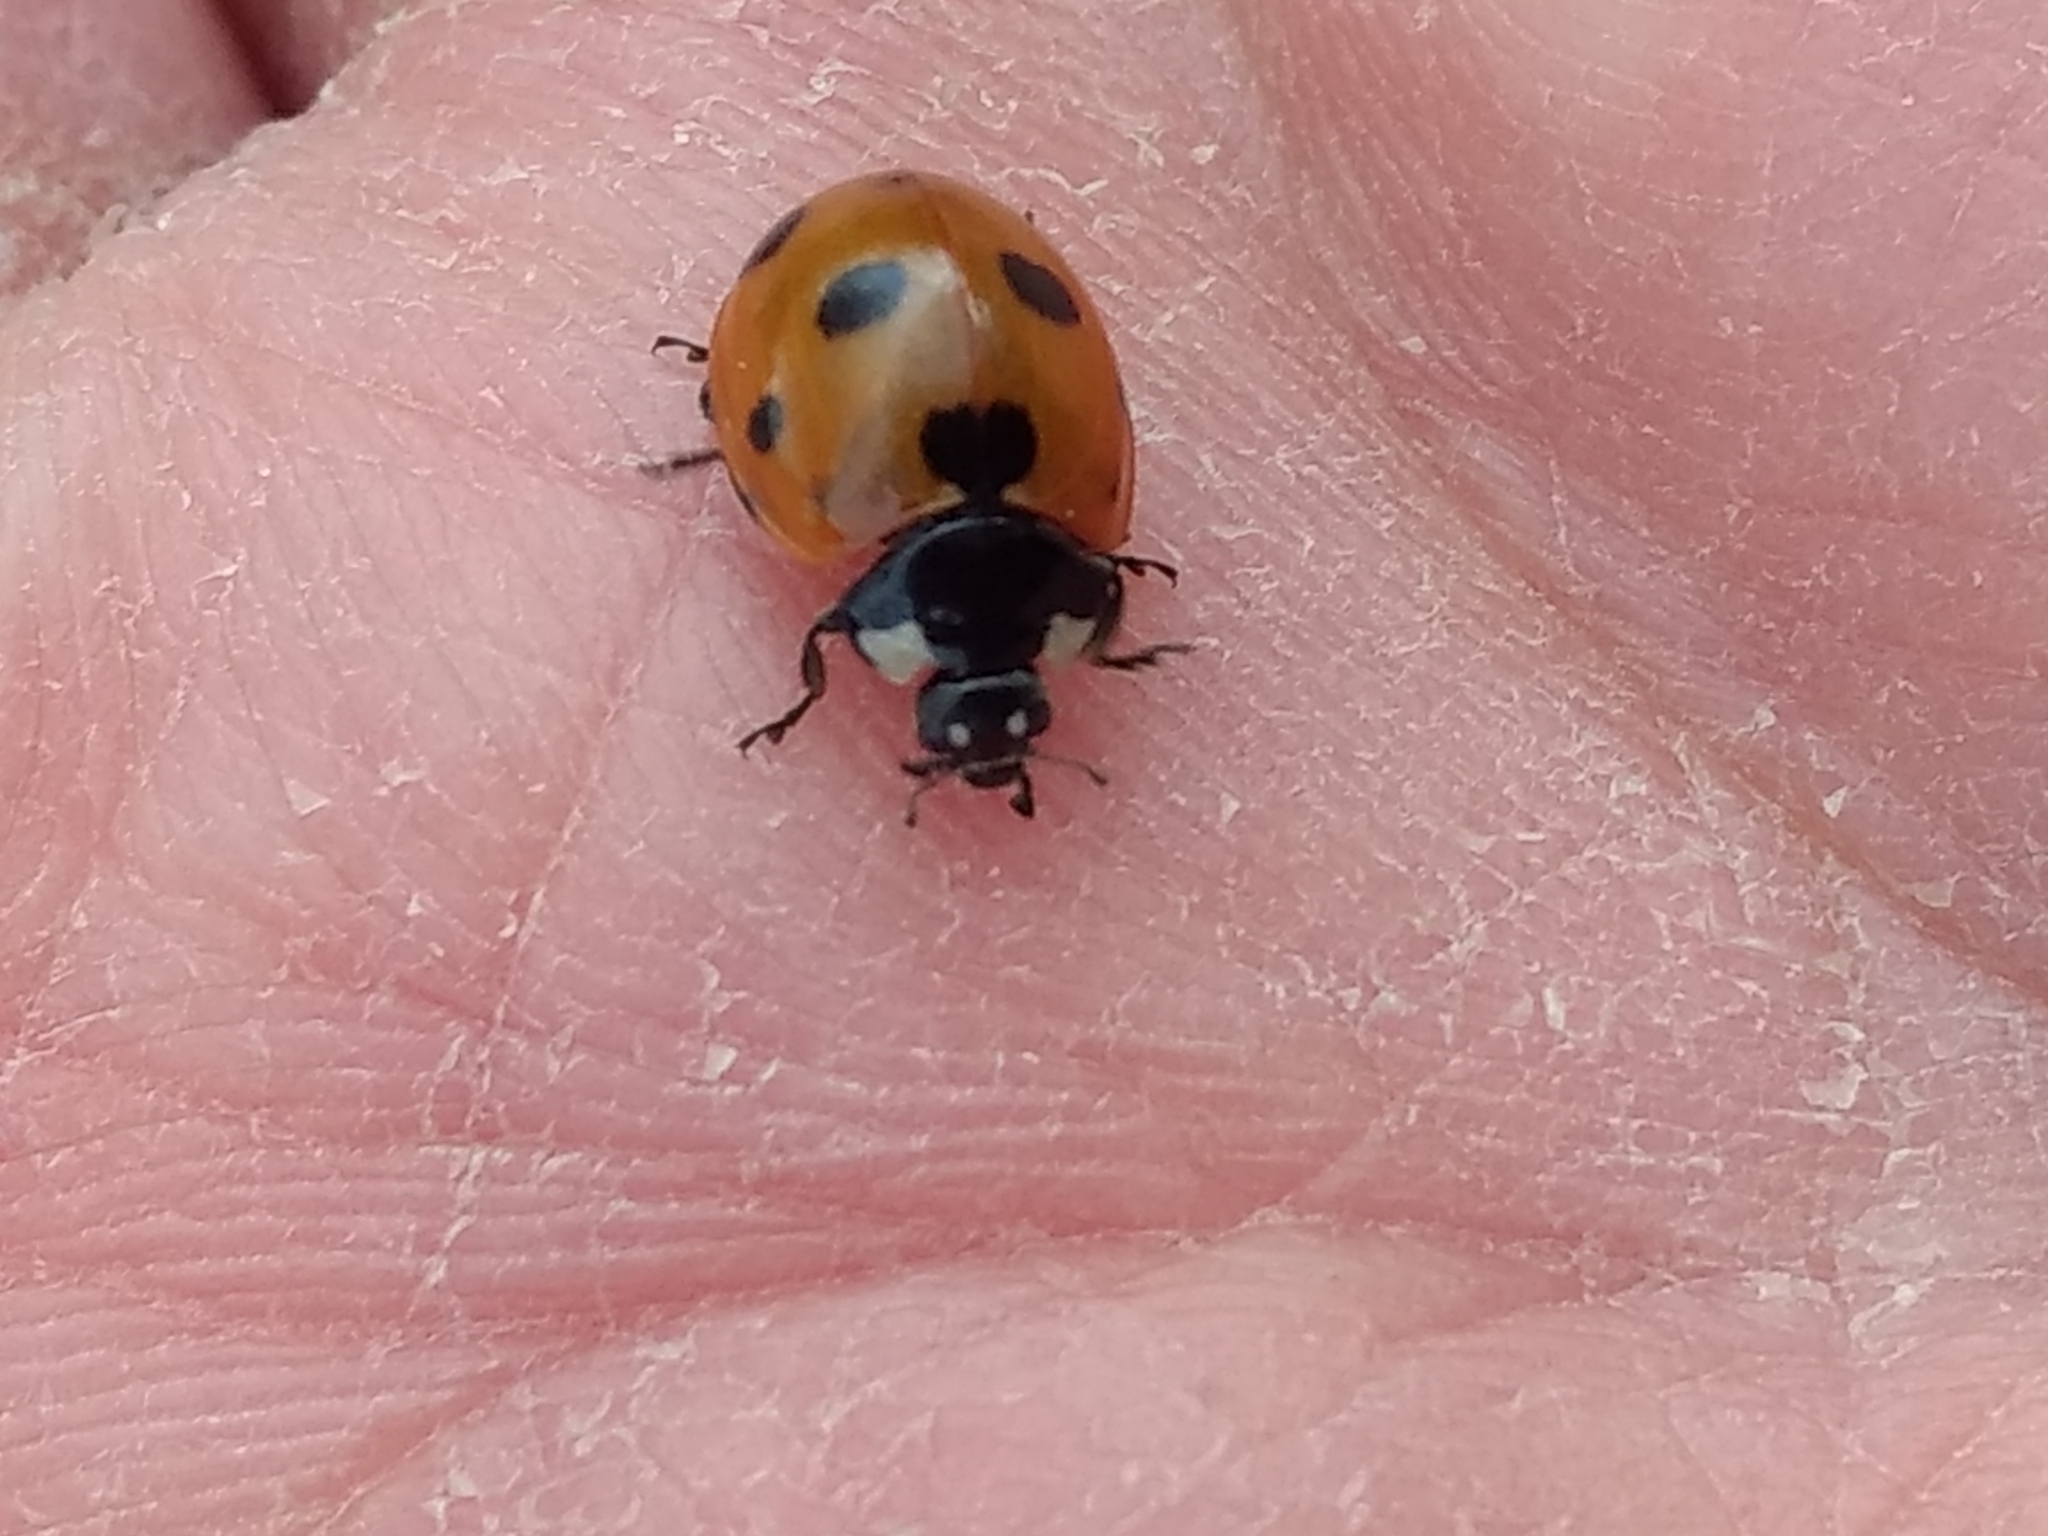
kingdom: Animalia
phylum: Arthropoda
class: Insecta
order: Coleoptera
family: Coccinellidae
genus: Coccinella
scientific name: Coccinella septempunctata
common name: Sevenspotted lady beetle
